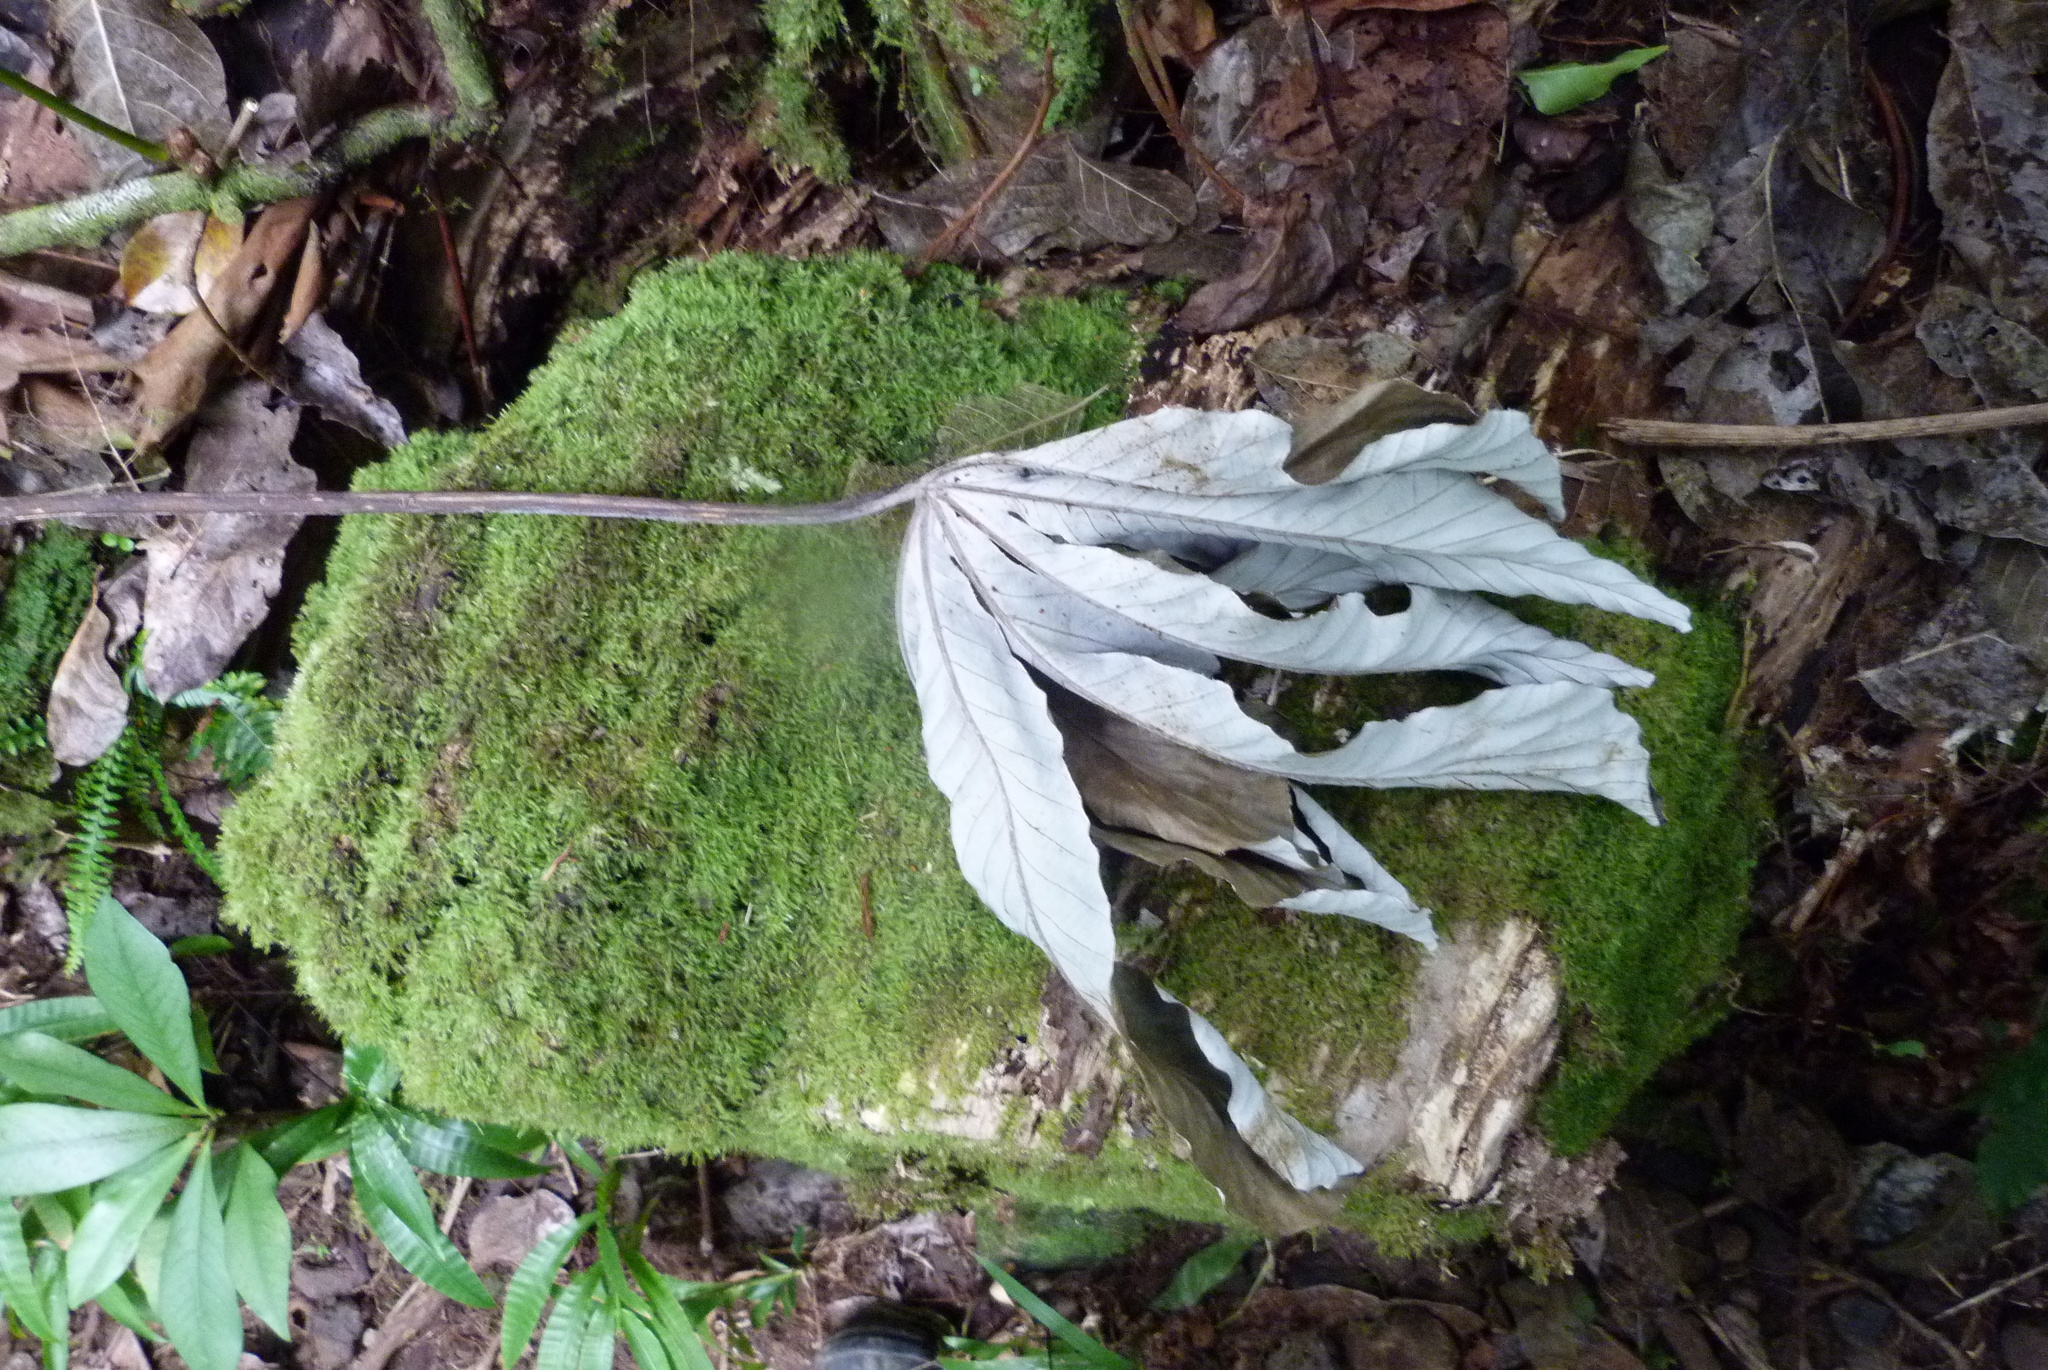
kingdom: Plantae
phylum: Tracheophyta
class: Magnoliopsida
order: Rosales
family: Urticaceae
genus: Cecropia
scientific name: Cecropia pachystachya
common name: Ambay pumpwood
